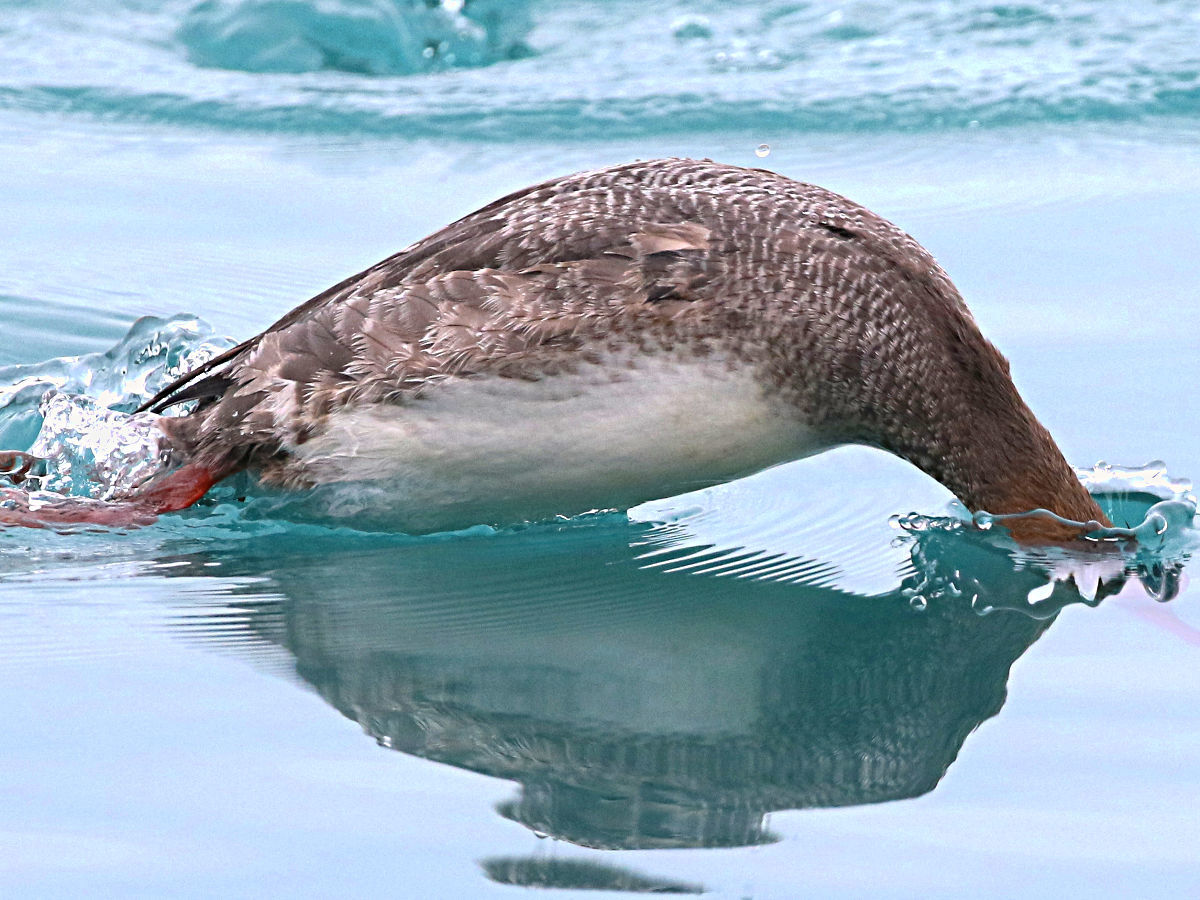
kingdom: Animalia
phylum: Chordata
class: Aves
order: Anseriformes
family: Anatidae
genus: Mergus
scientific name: Mergus serrator
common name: Red-breasted merganser
